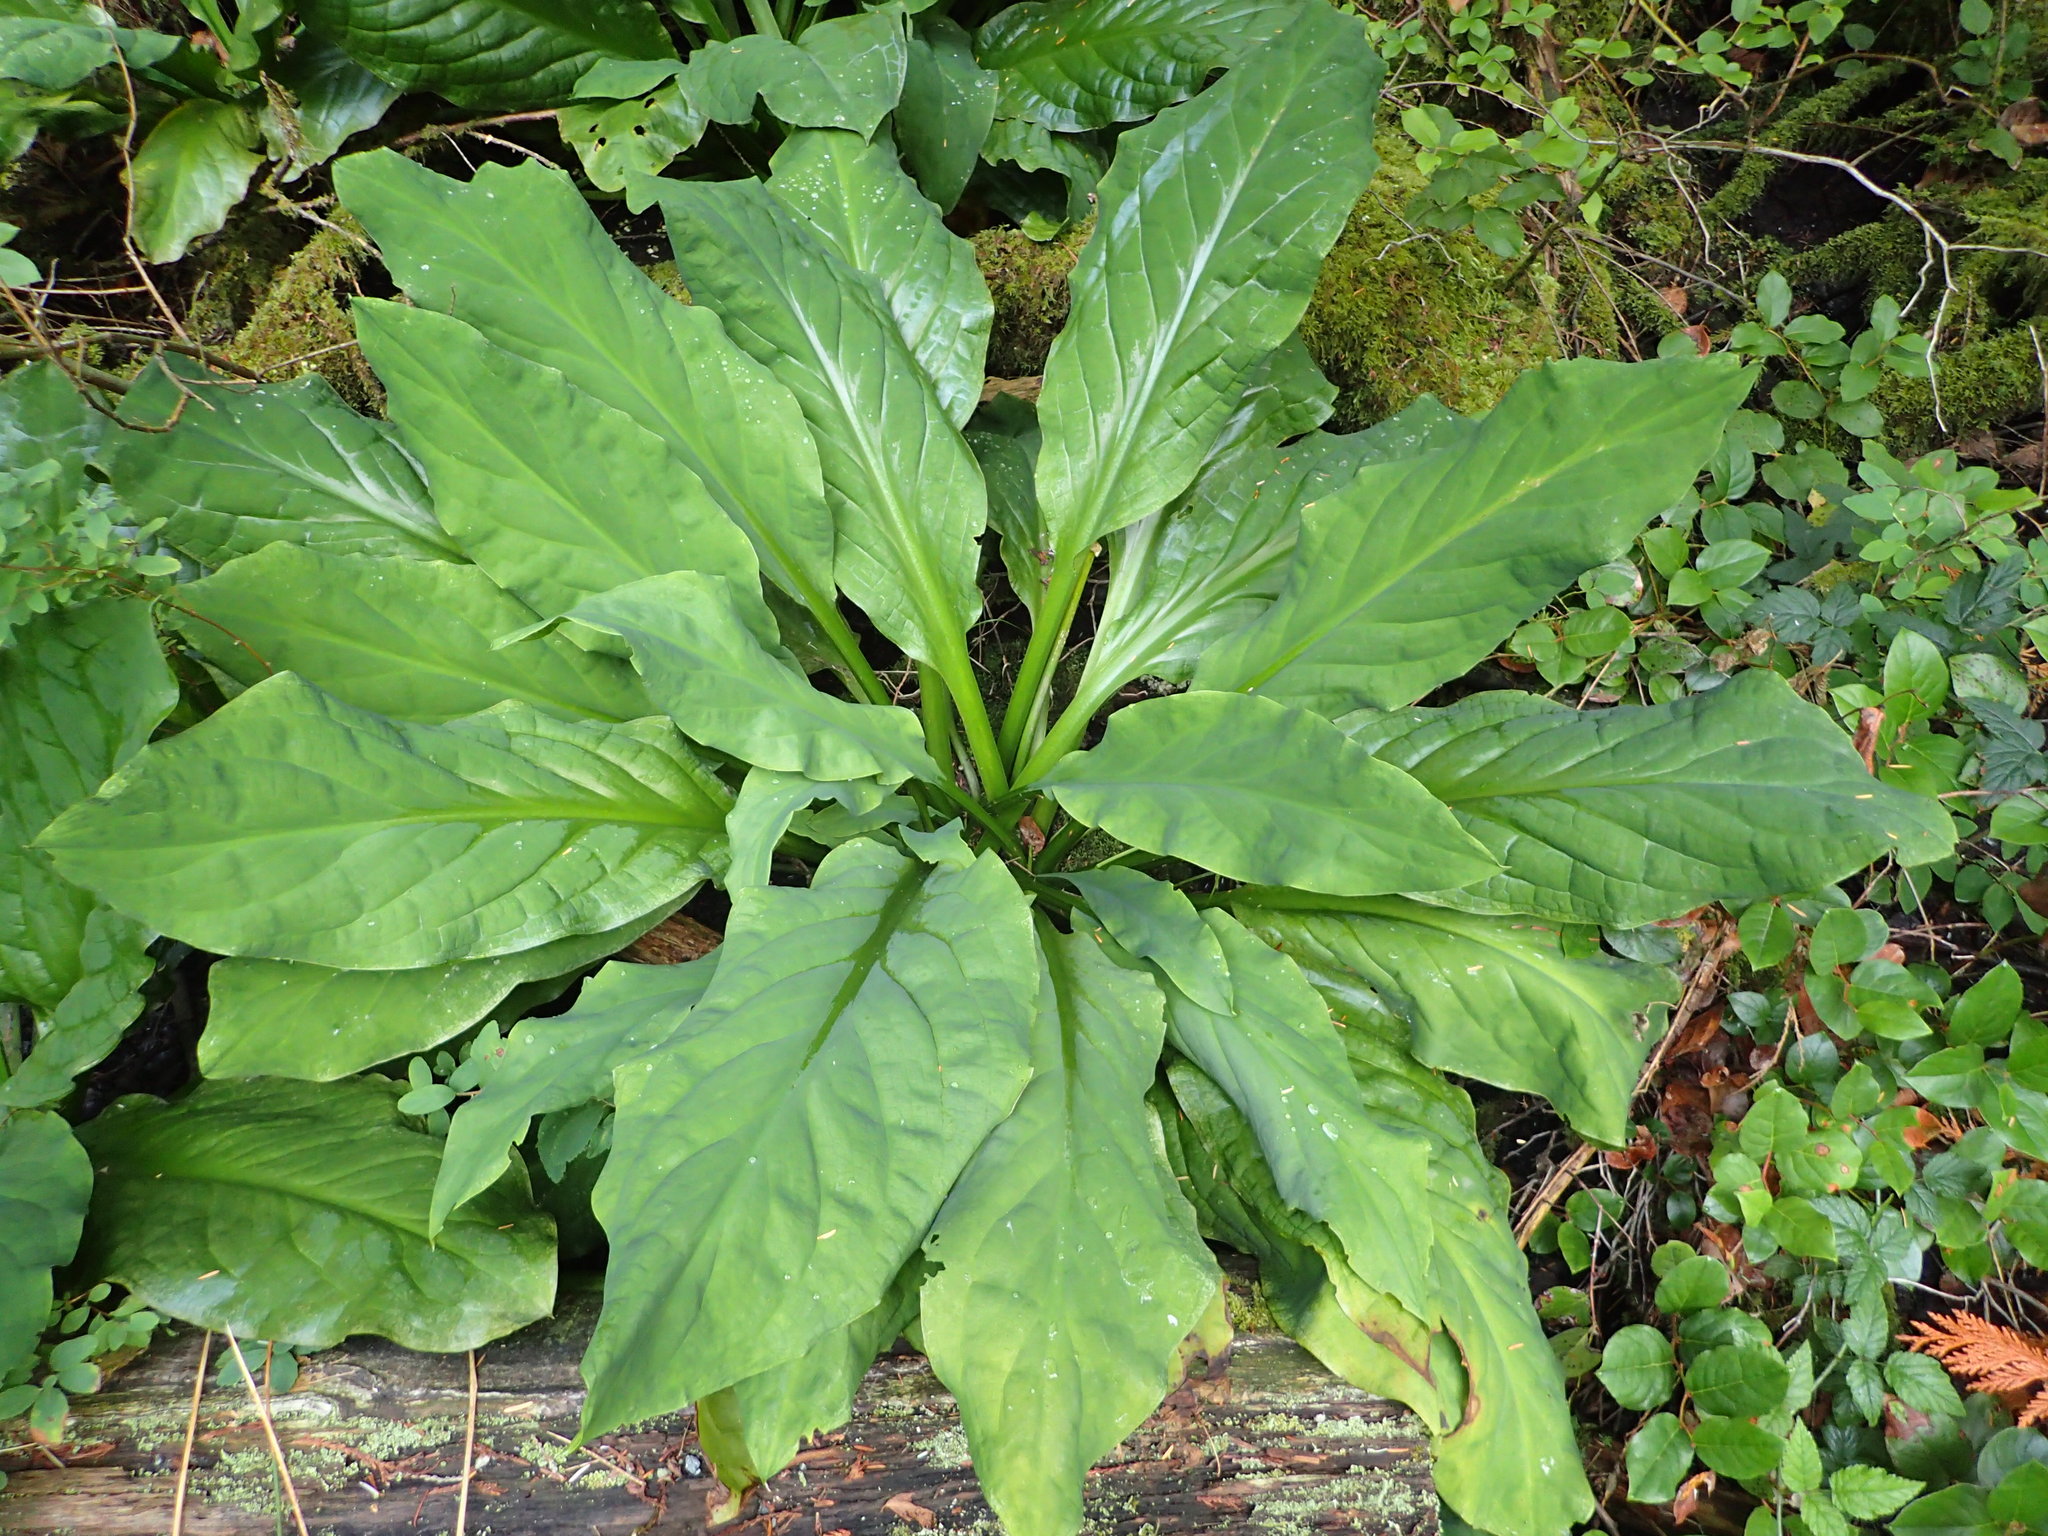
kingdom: Plantae
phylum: Tracheophyta
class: Liliopsida
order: Alismatales
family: Araceae
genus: Lysichiton
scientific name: Lysichiton americanus
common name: American skunk cabbage
